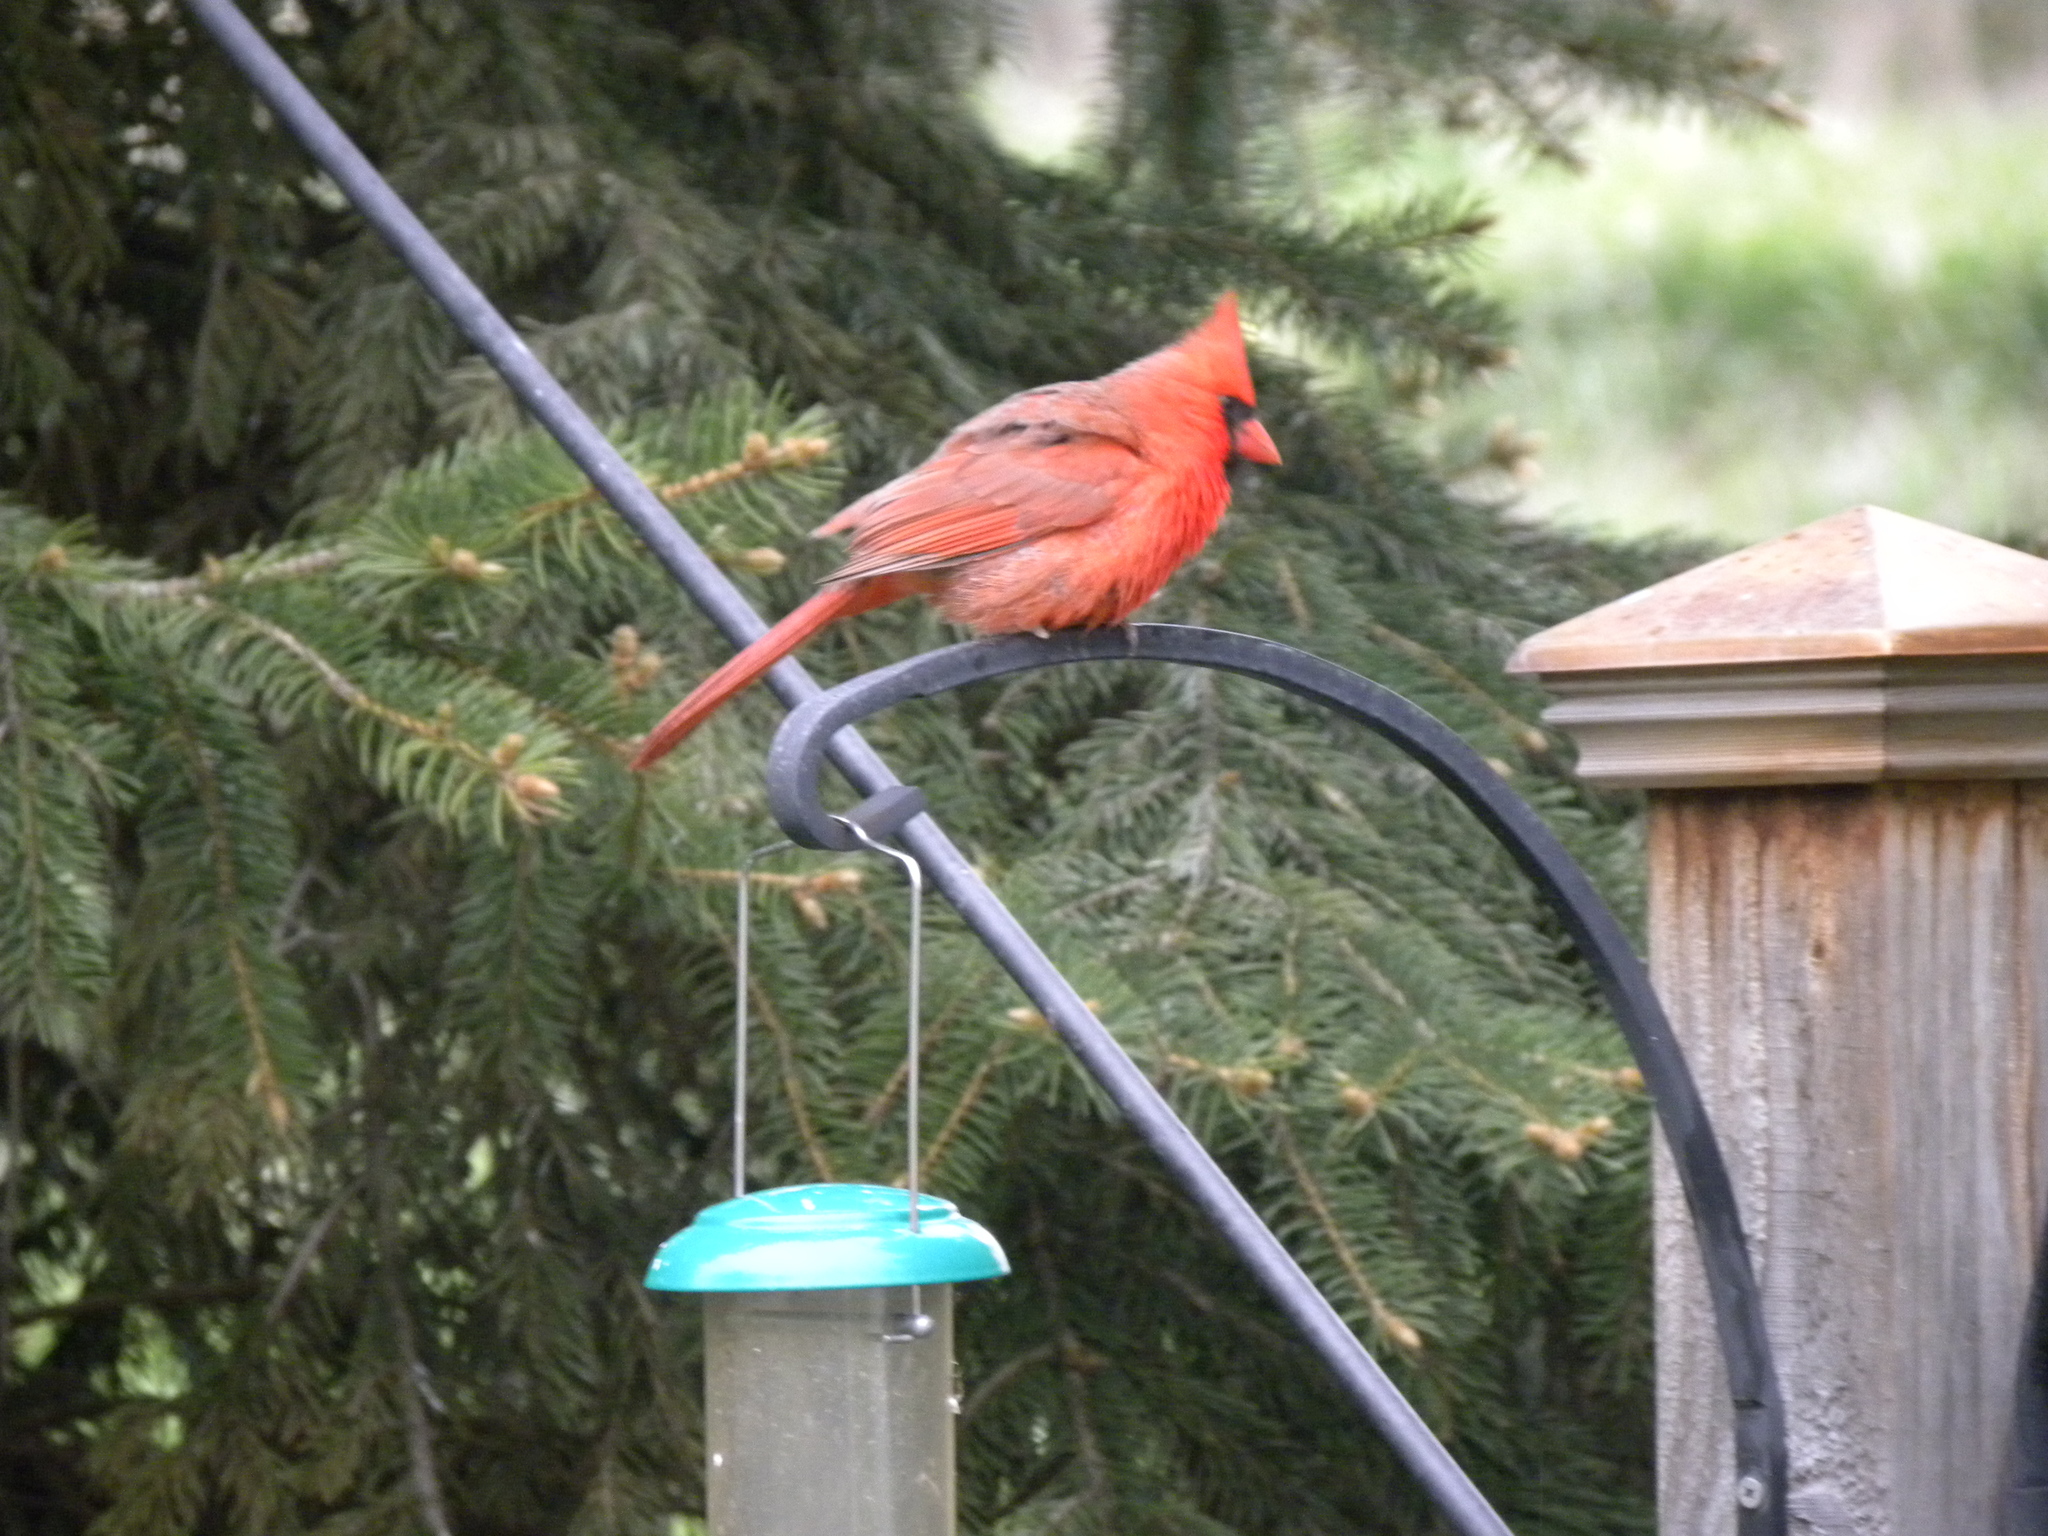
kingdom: Animalia
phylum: Chordata
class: Aves
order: Passeriformes
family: Cardinalidae
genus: Cardinalis
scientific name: Cardinalis cardinalis
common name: Northern cardinal
